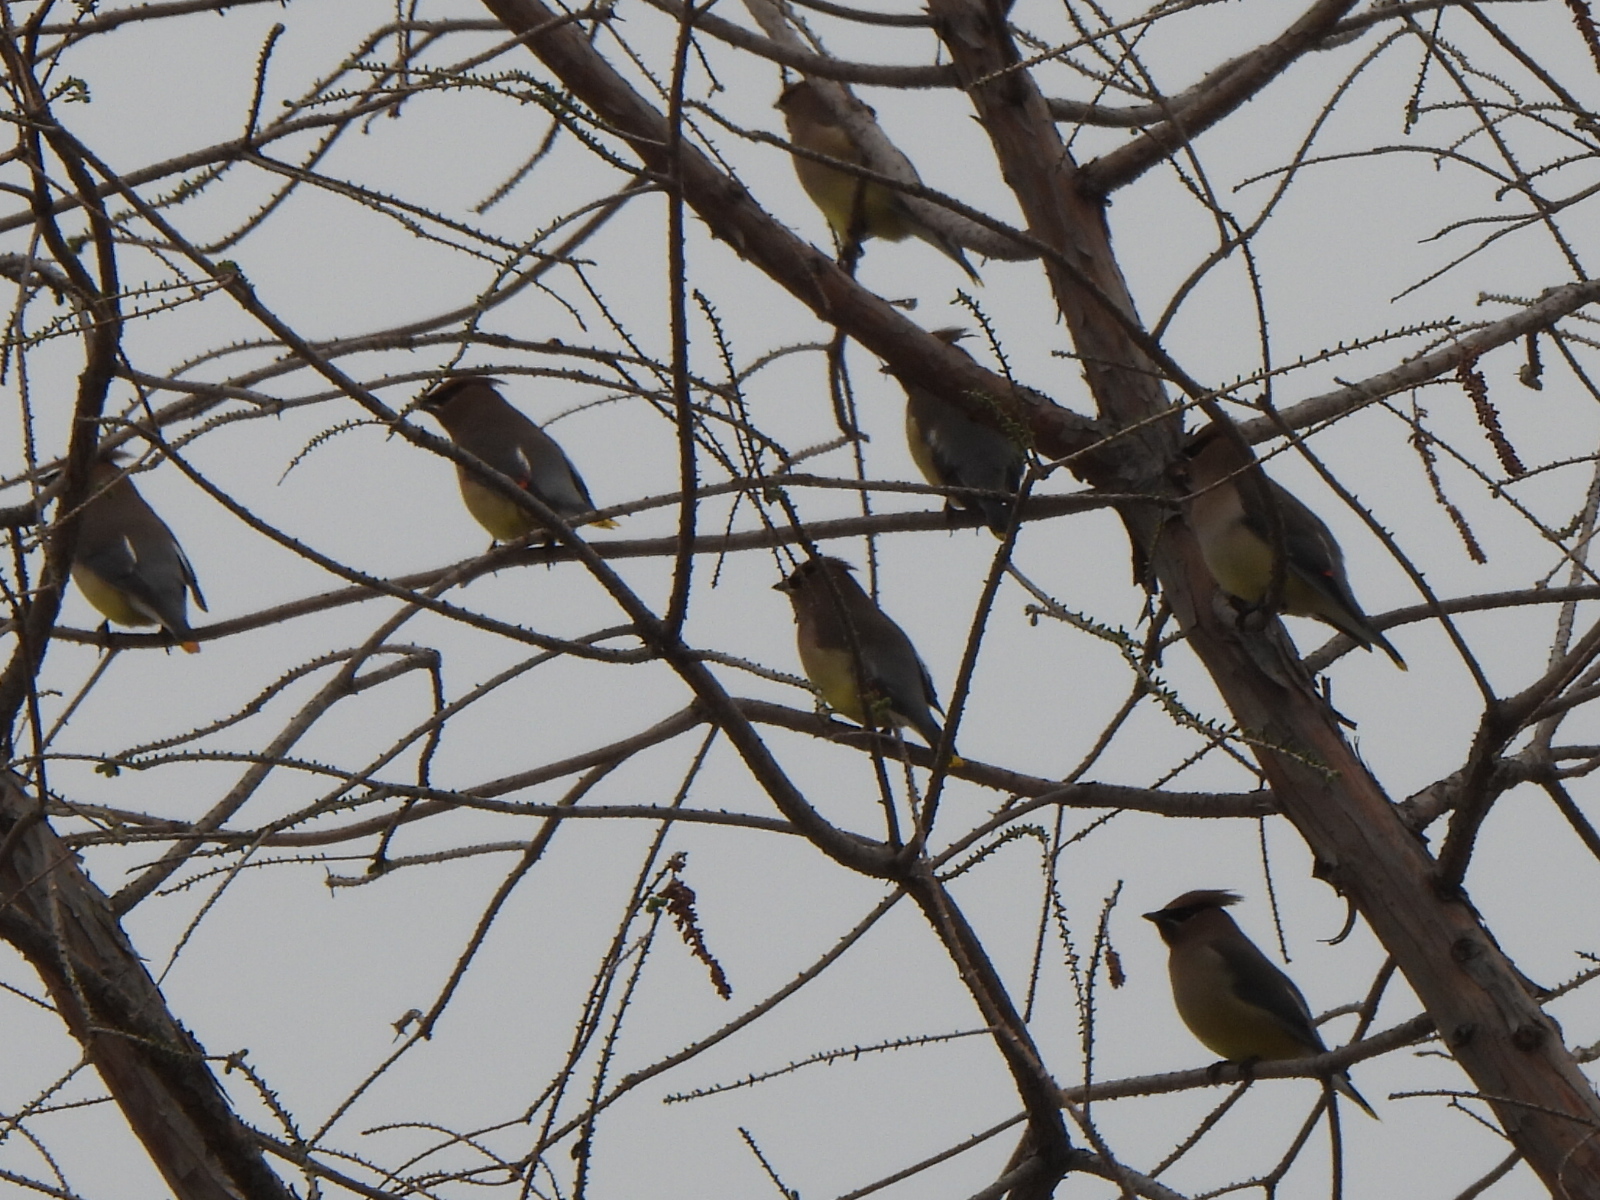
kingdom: Animalia
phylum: Chordata
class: Aves
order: Passeriformes
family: Bombycillidae
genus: Bombycilla
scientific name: Bombycilla cedrorum
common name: Cedar waxwing
